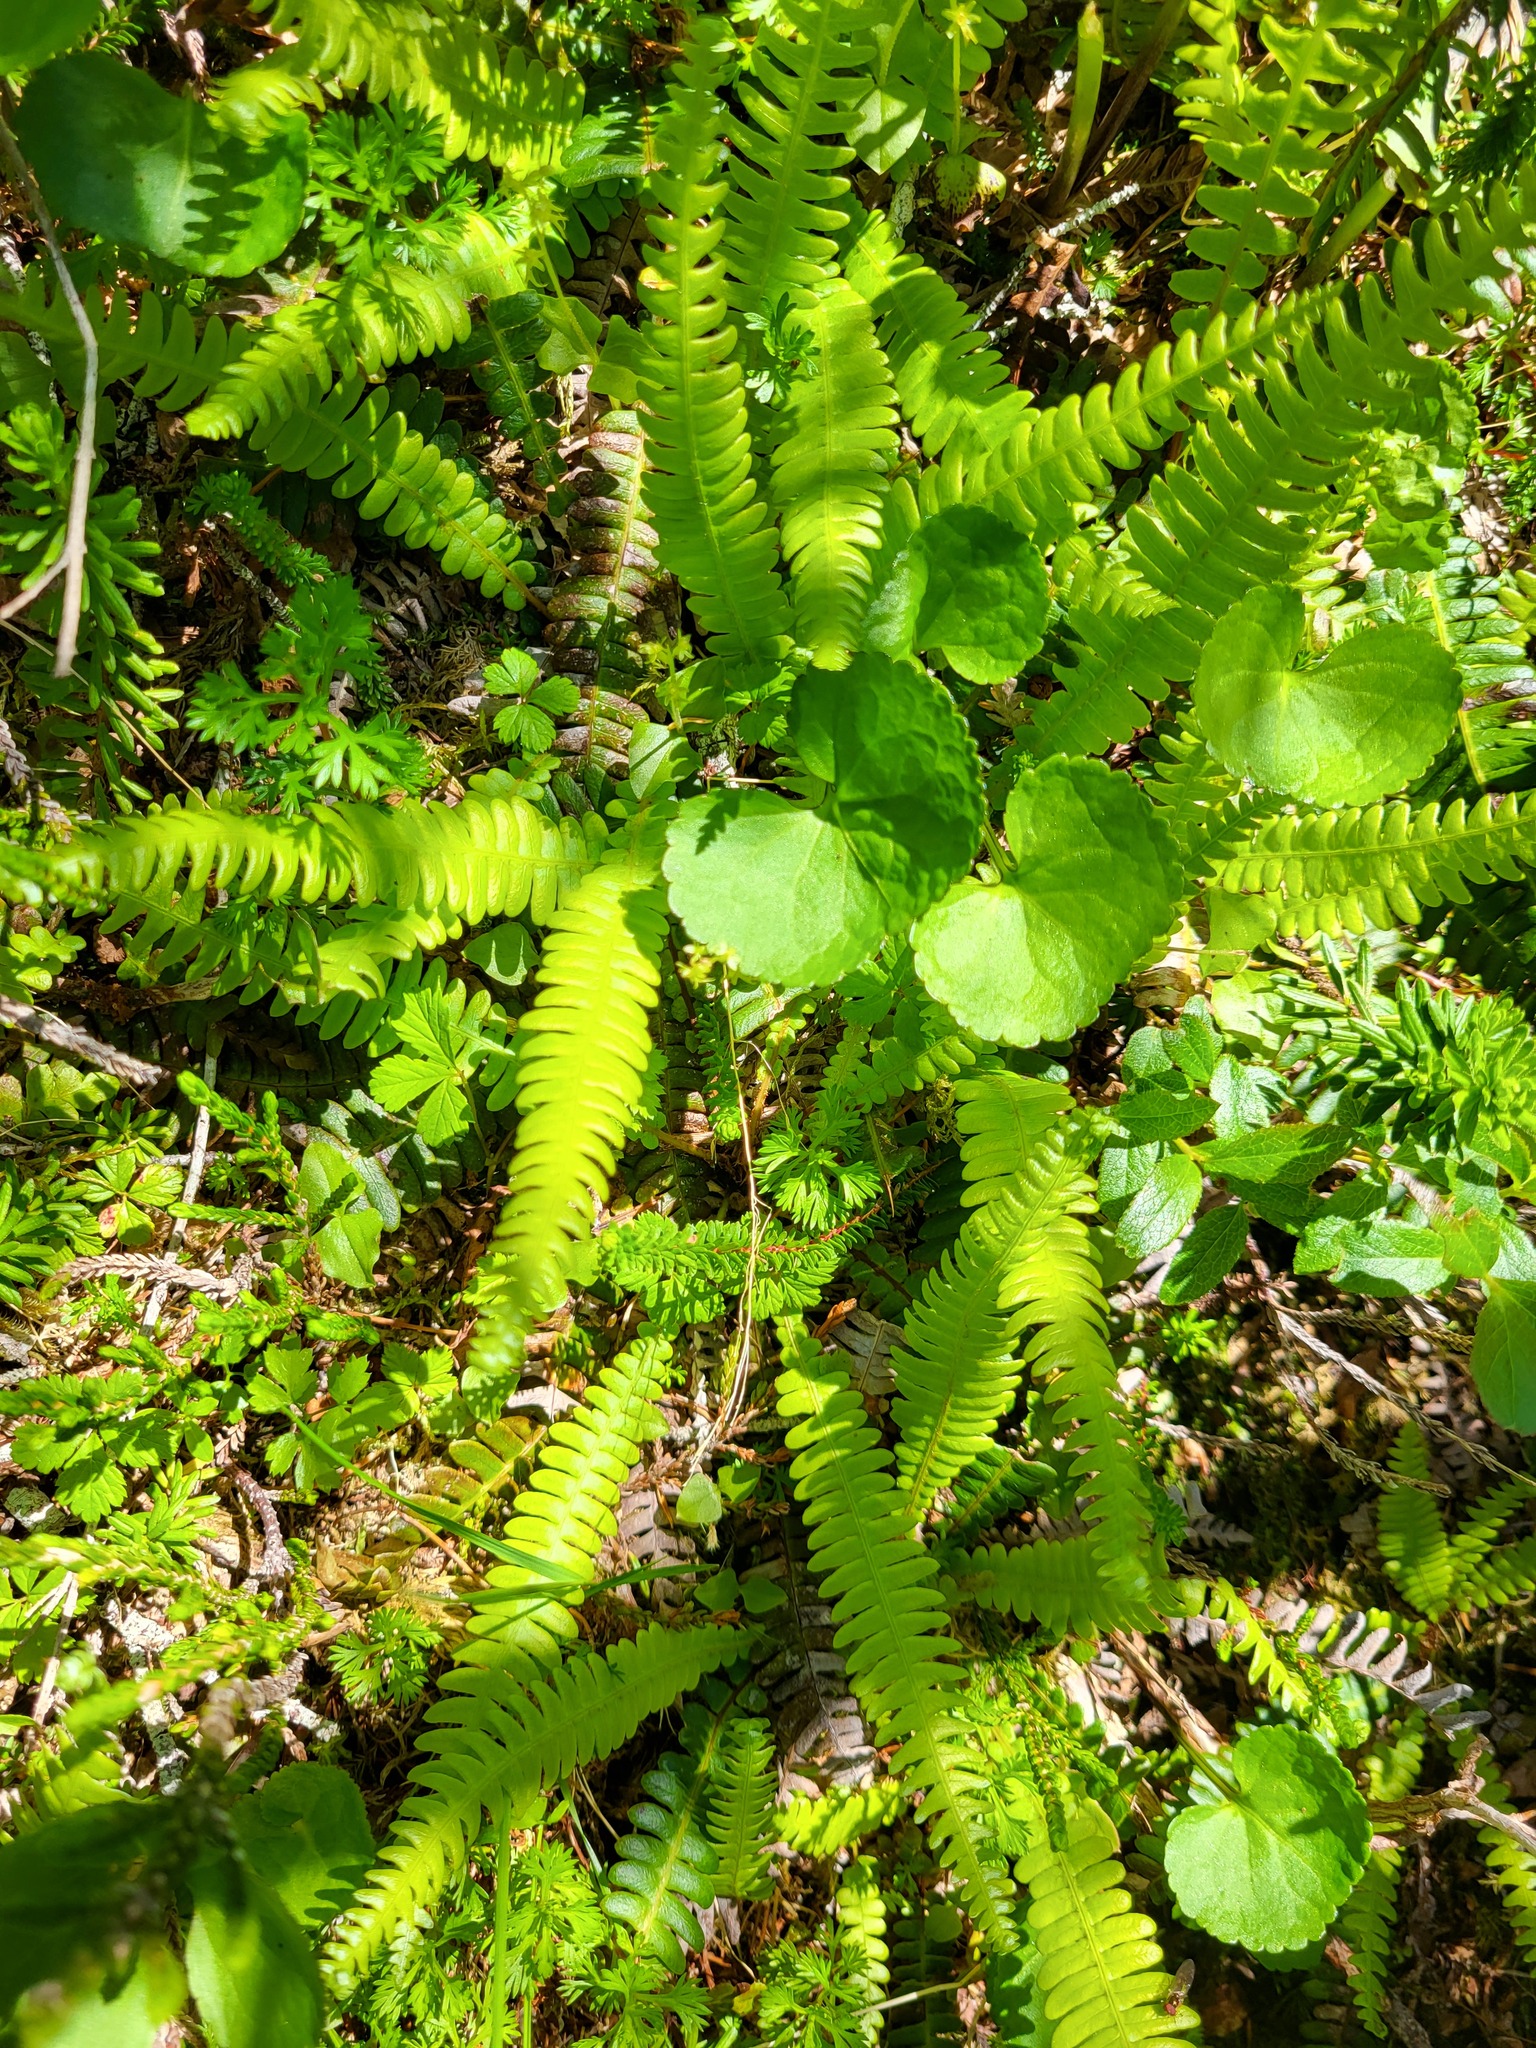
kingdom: Plantae
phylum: Tracheophyta
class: Polypodiopsida
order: Polypodiales
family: Blechnaceae
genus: Struthiopteris
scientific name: Struthiopteris spicant
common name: Deer fern
